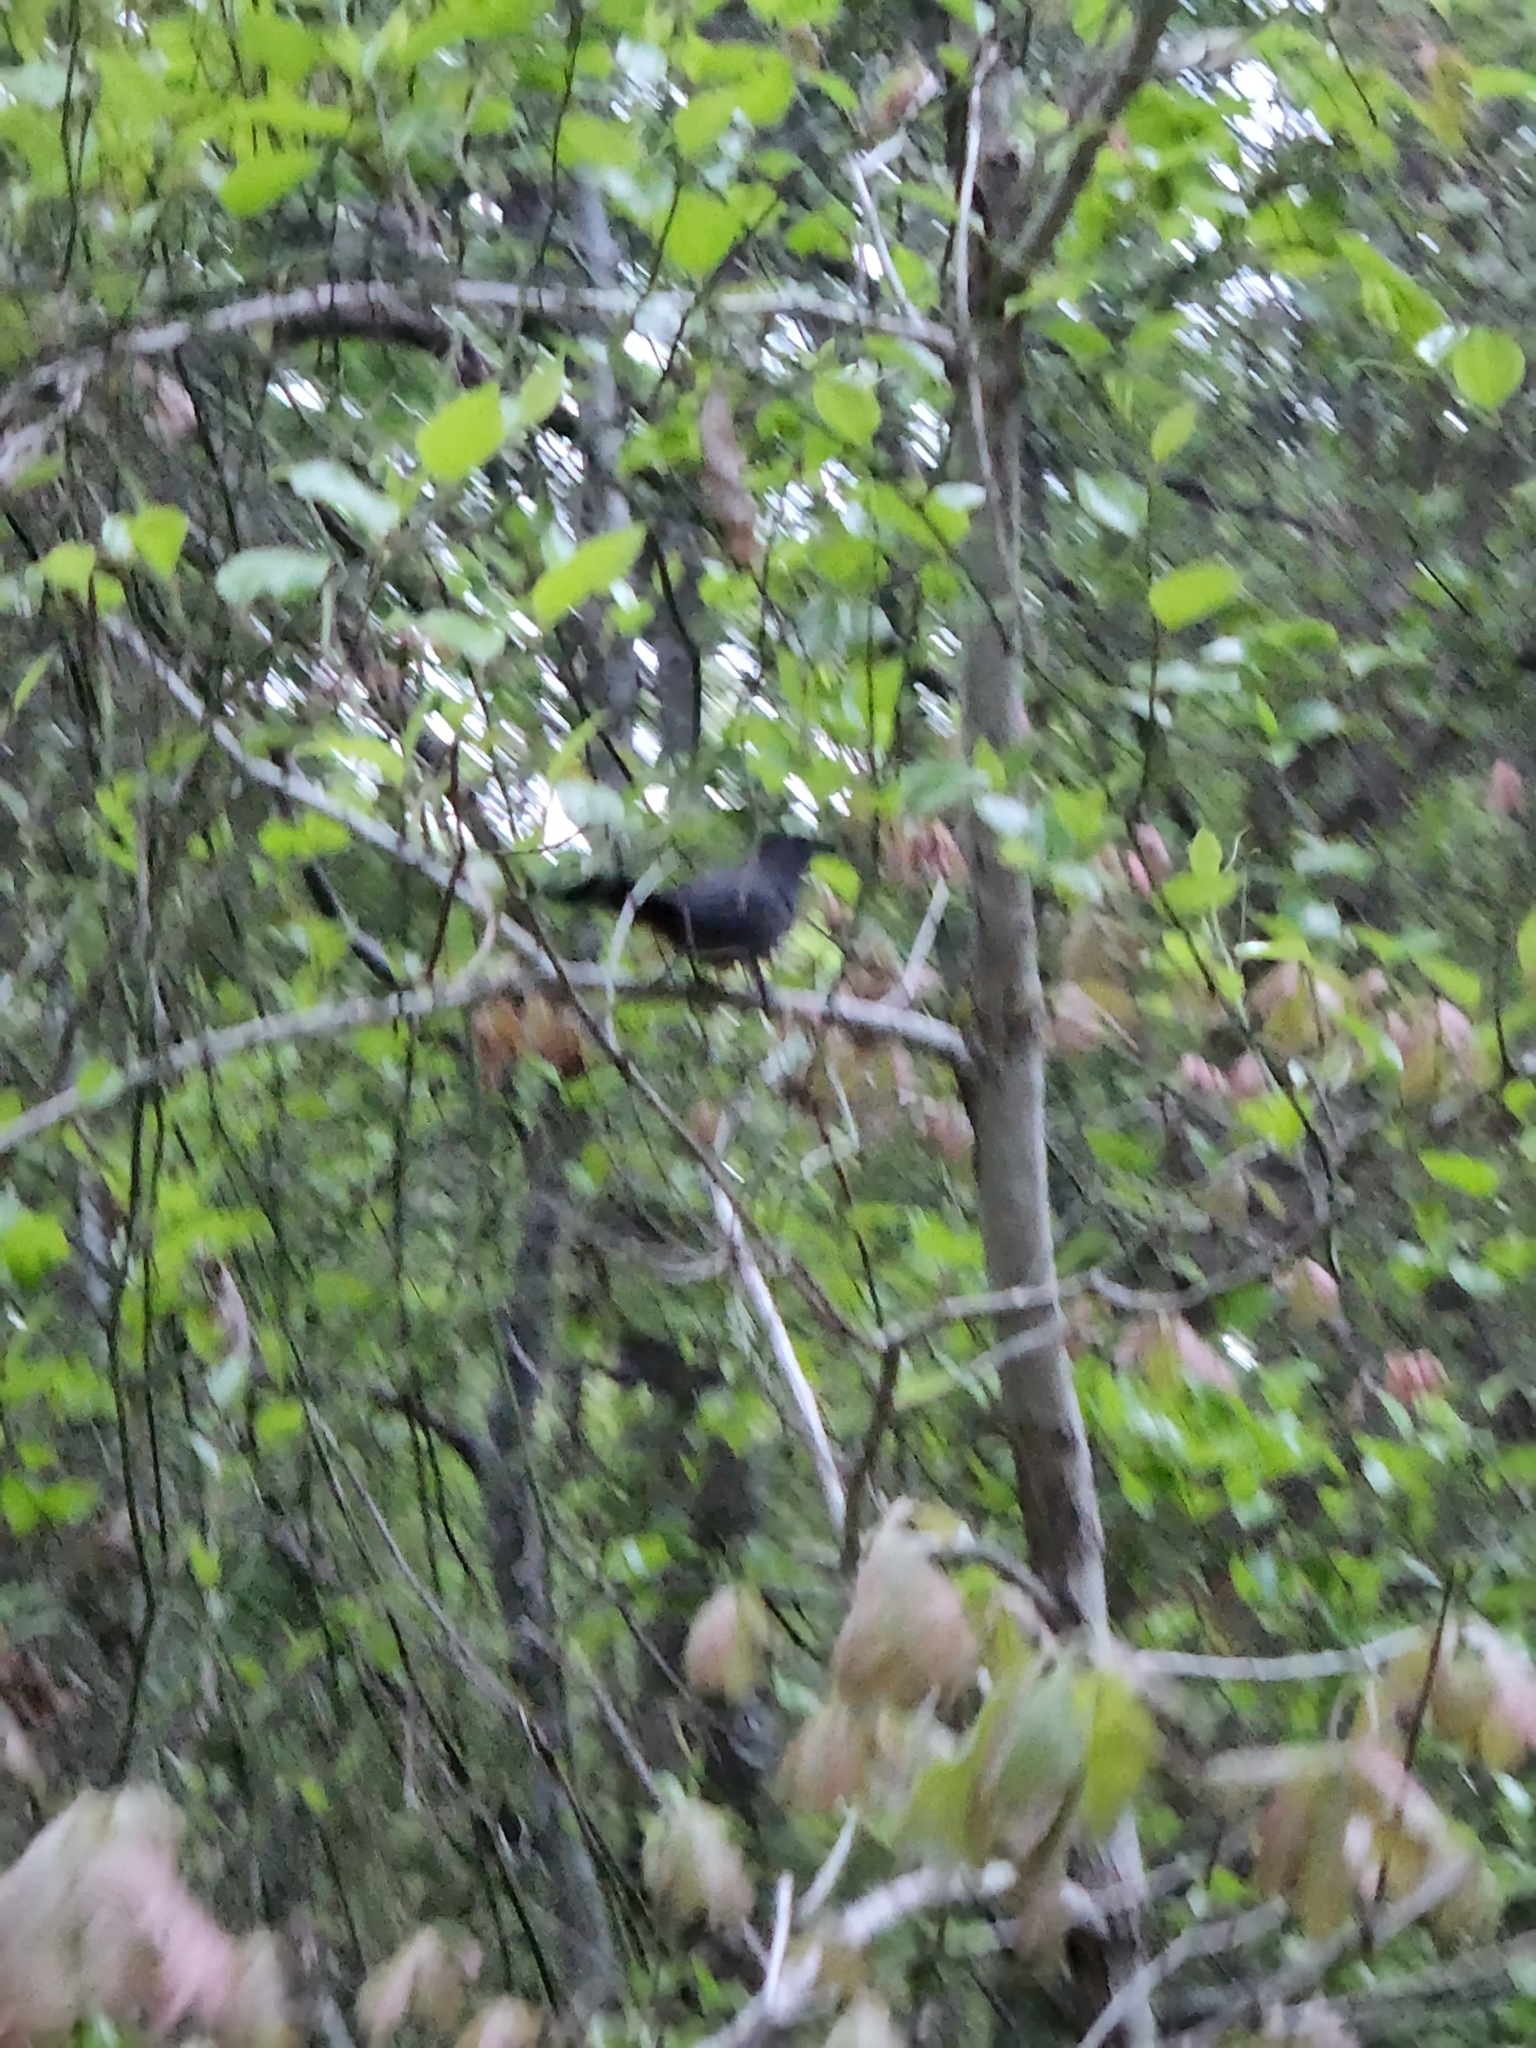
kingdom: Animalia
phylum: Chordata
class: Aves
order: Passeriformes
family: Mimidae
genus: Dumetella
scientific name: Dumetella carolinensis
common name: Gray catbird
